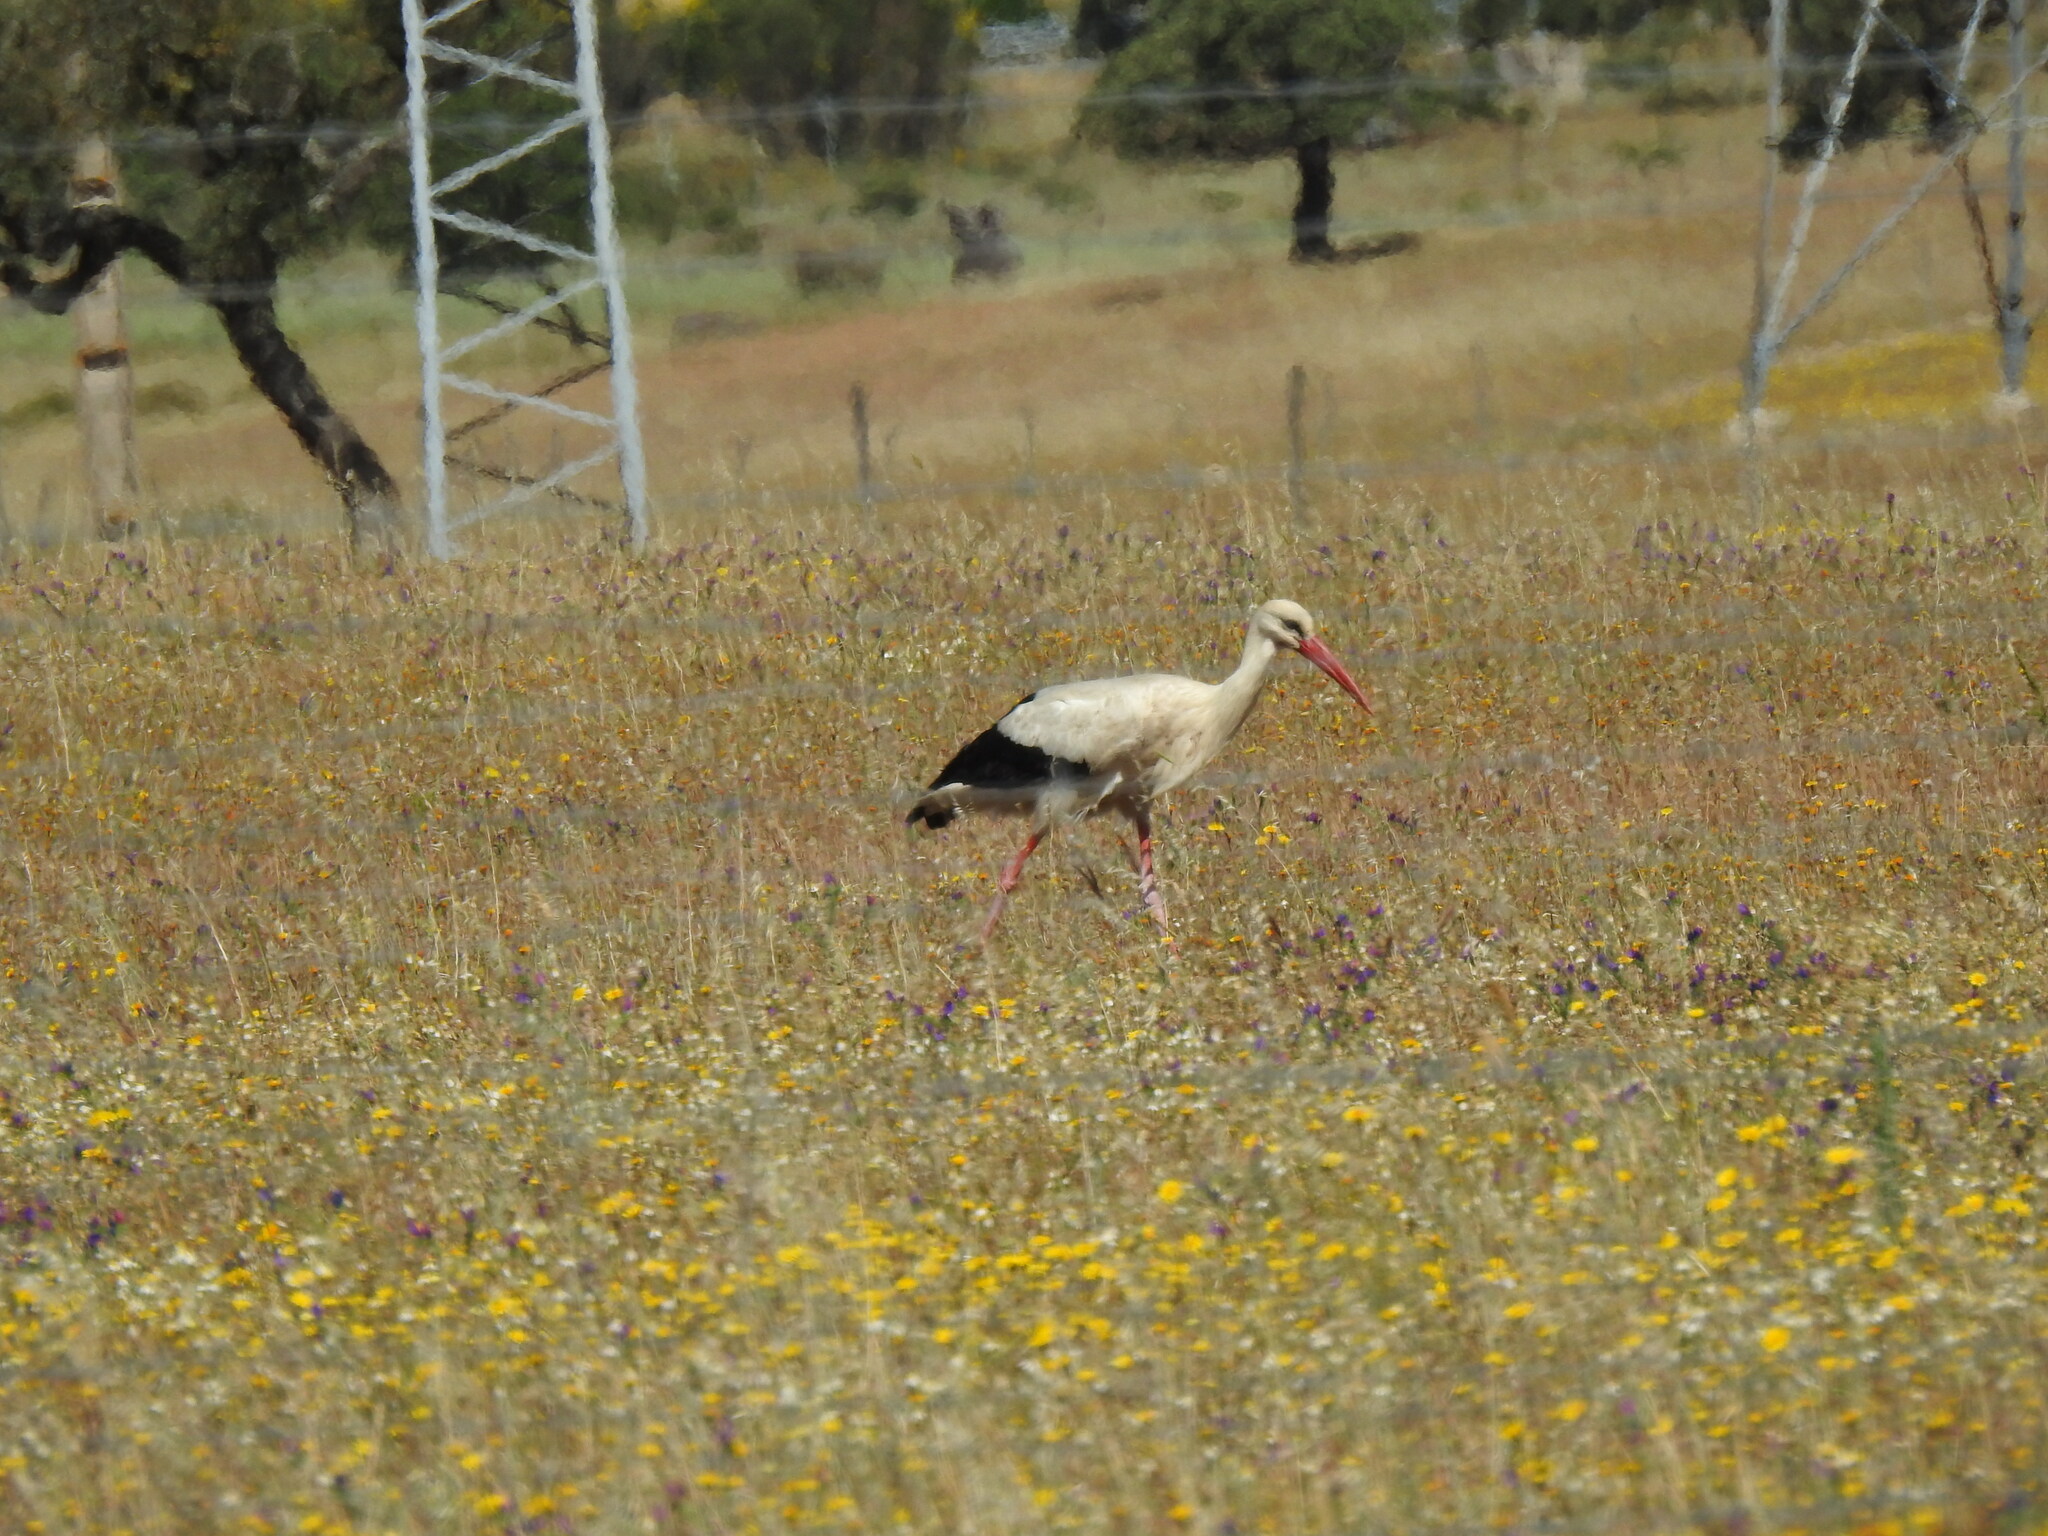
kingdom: Animalia
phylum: Chordata
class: Aves
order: Ciconiiformes
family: Ciconiidae
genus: Ciconia
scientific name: Ciconia ciconia
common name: White stork
